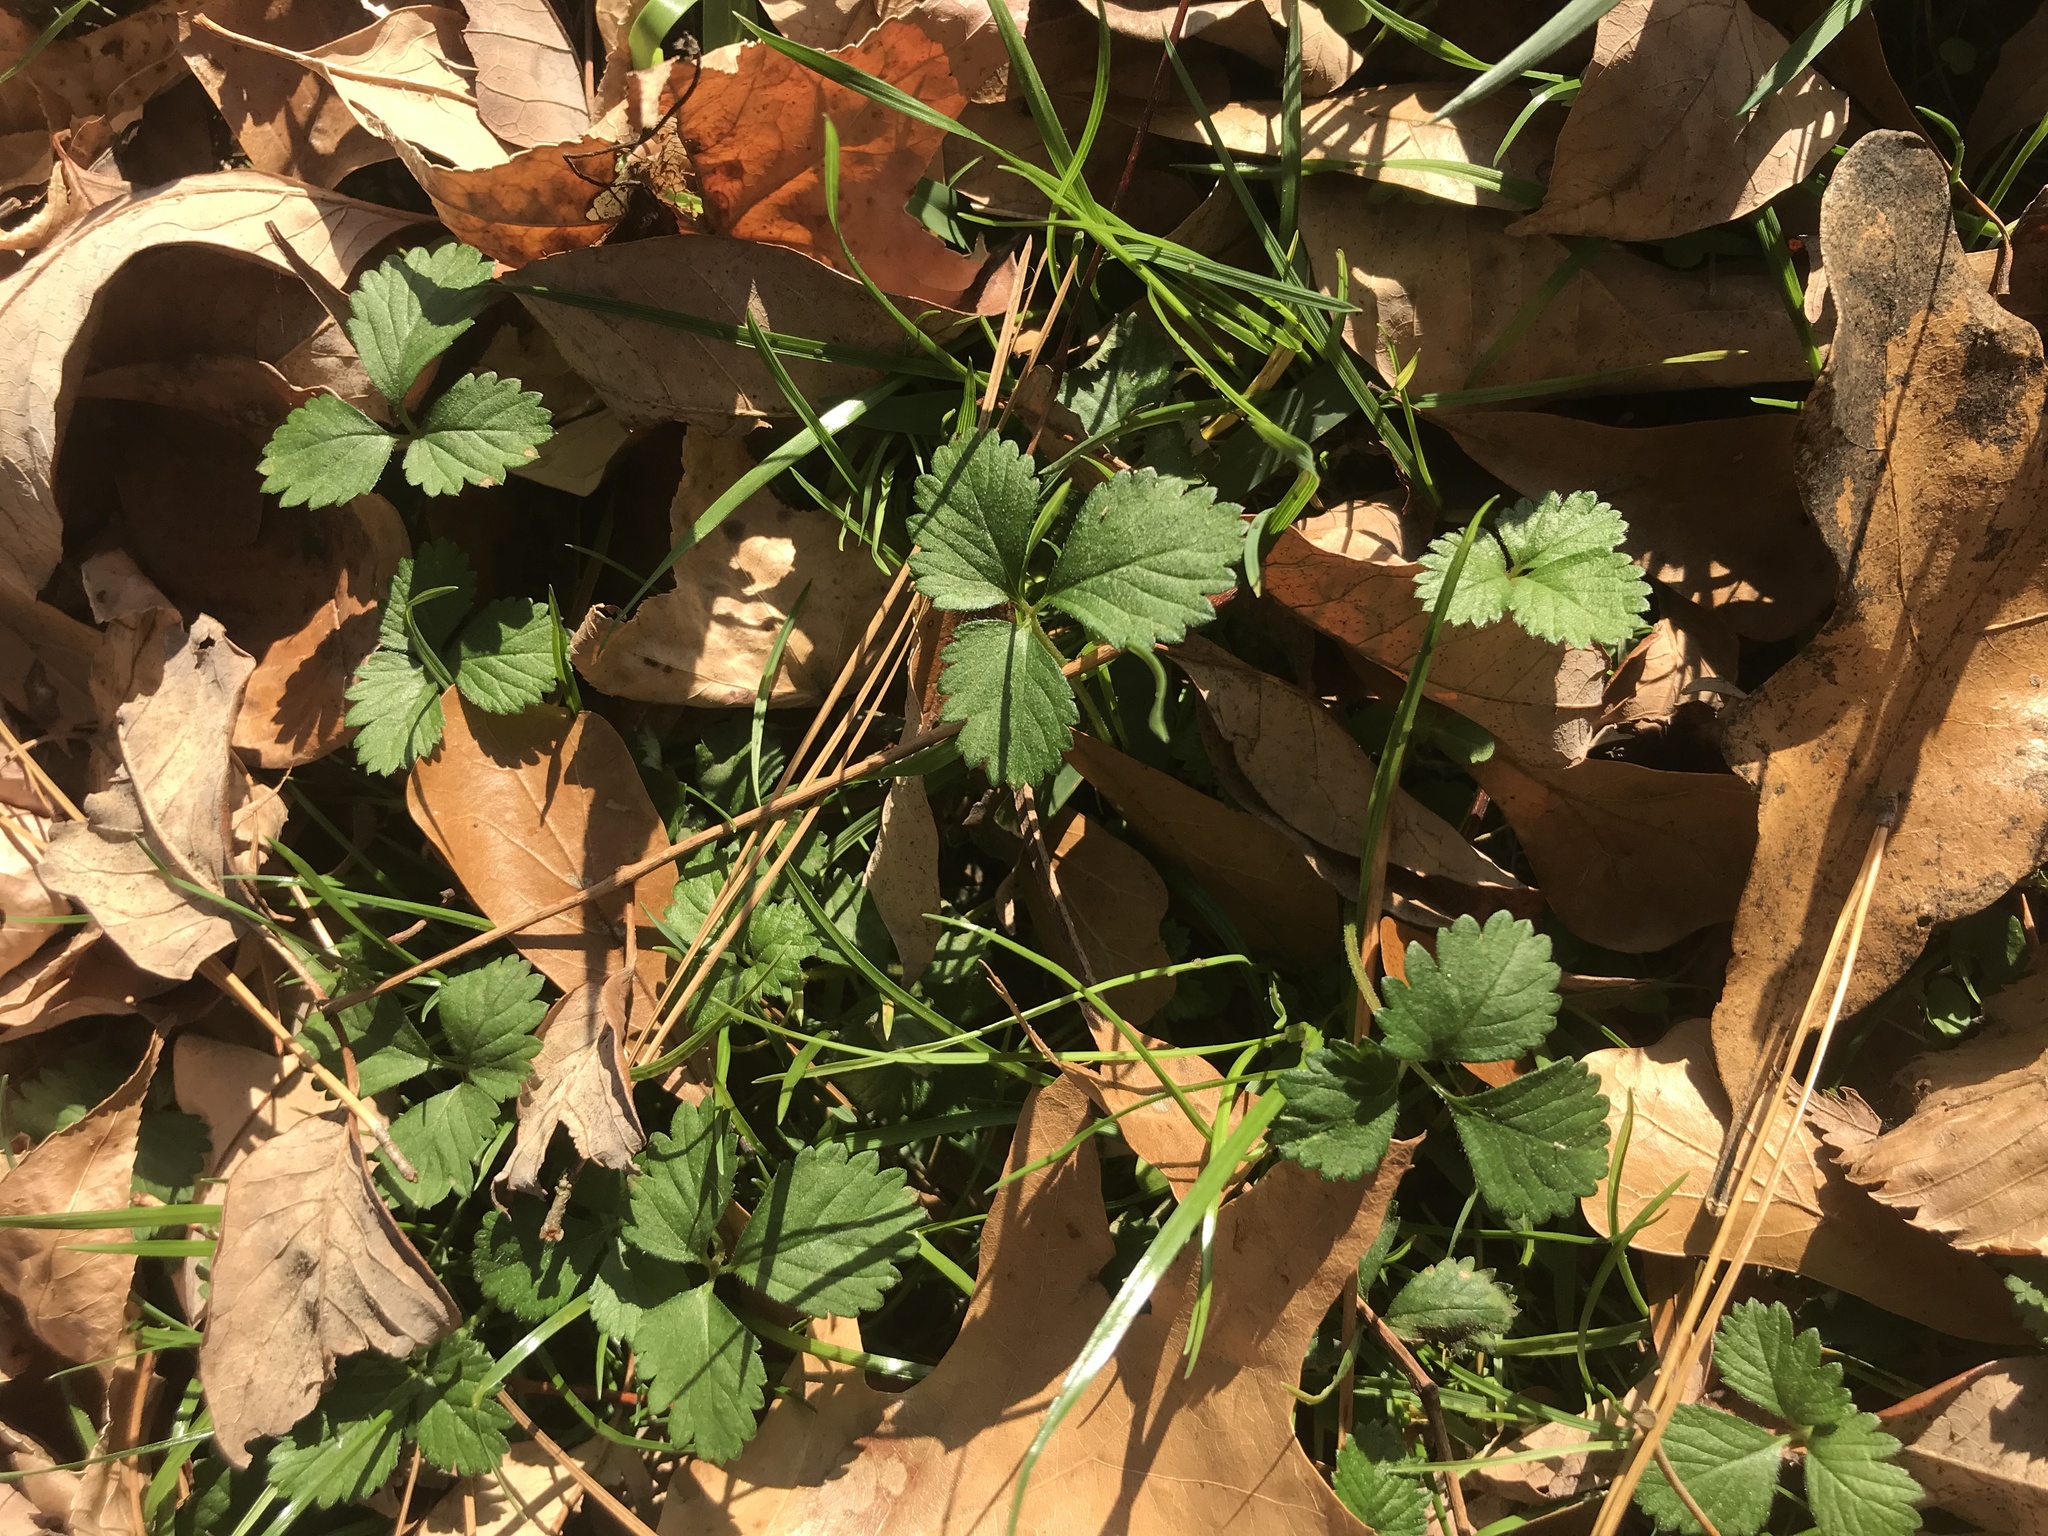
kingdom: Plantae
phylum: Tracheophyta
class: Magnoliopsida
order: Rosales
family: Rosaceae
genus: Potentilla
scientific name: Potentilla indica
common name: Yellow-flowered strawberry
